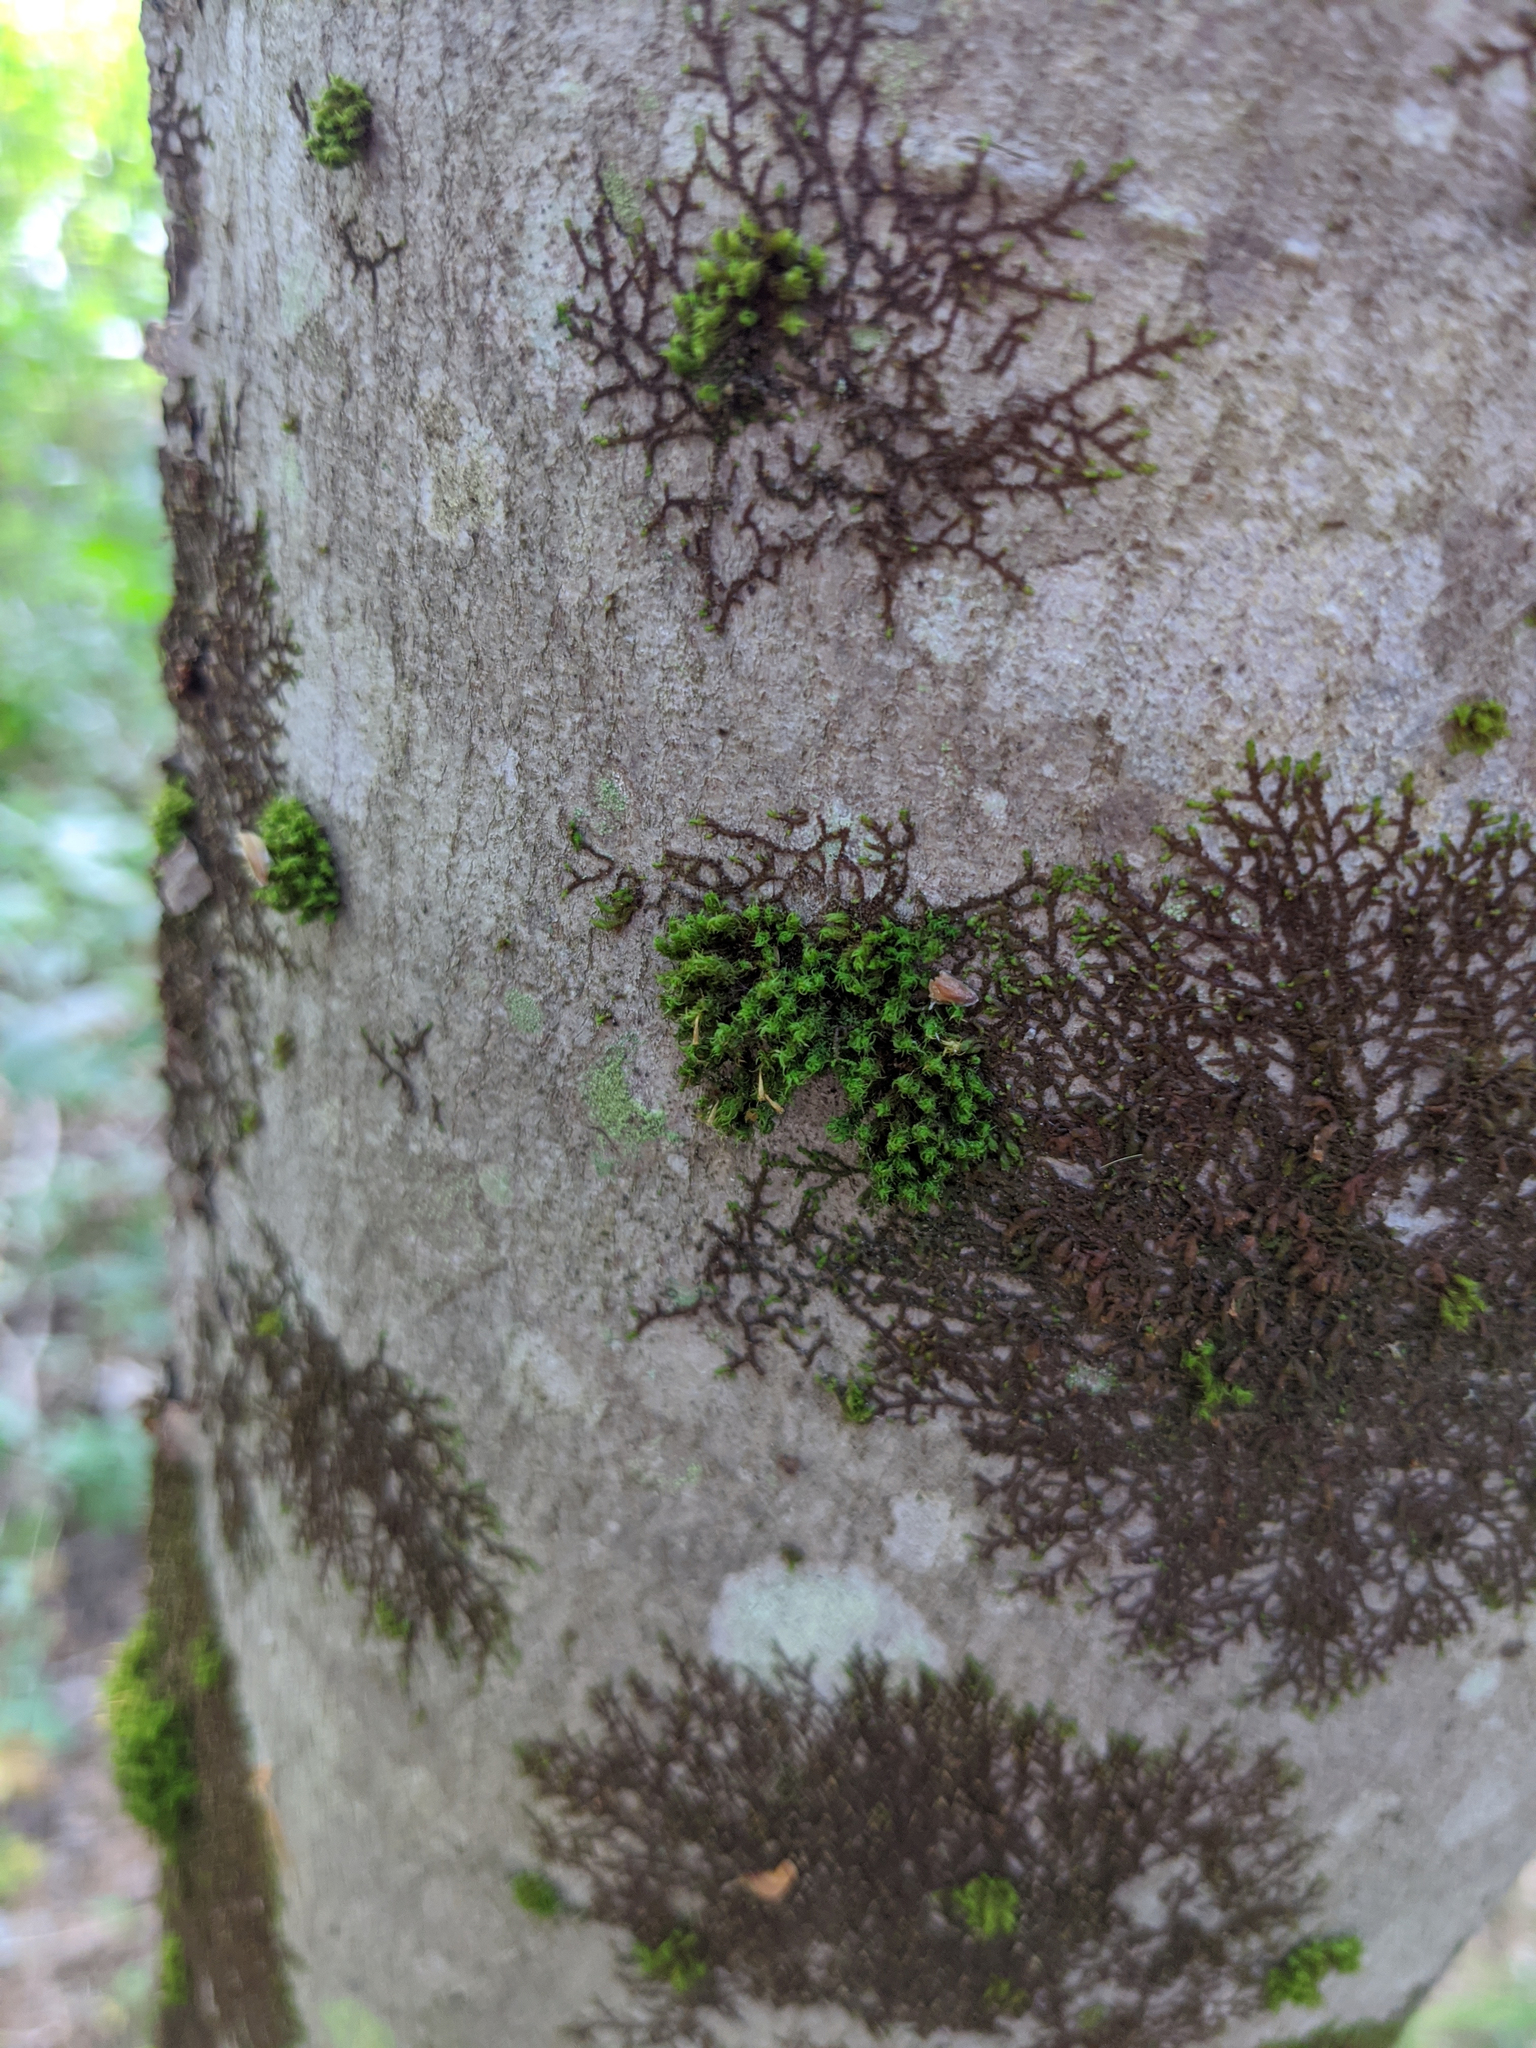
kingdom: Plantae
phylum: Bryophyta
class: Bryopsida
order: Orthotrichales
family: Orthotrichaceae
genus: Ulota
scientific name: Ulota crispa
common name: Crisped pincushion moss
